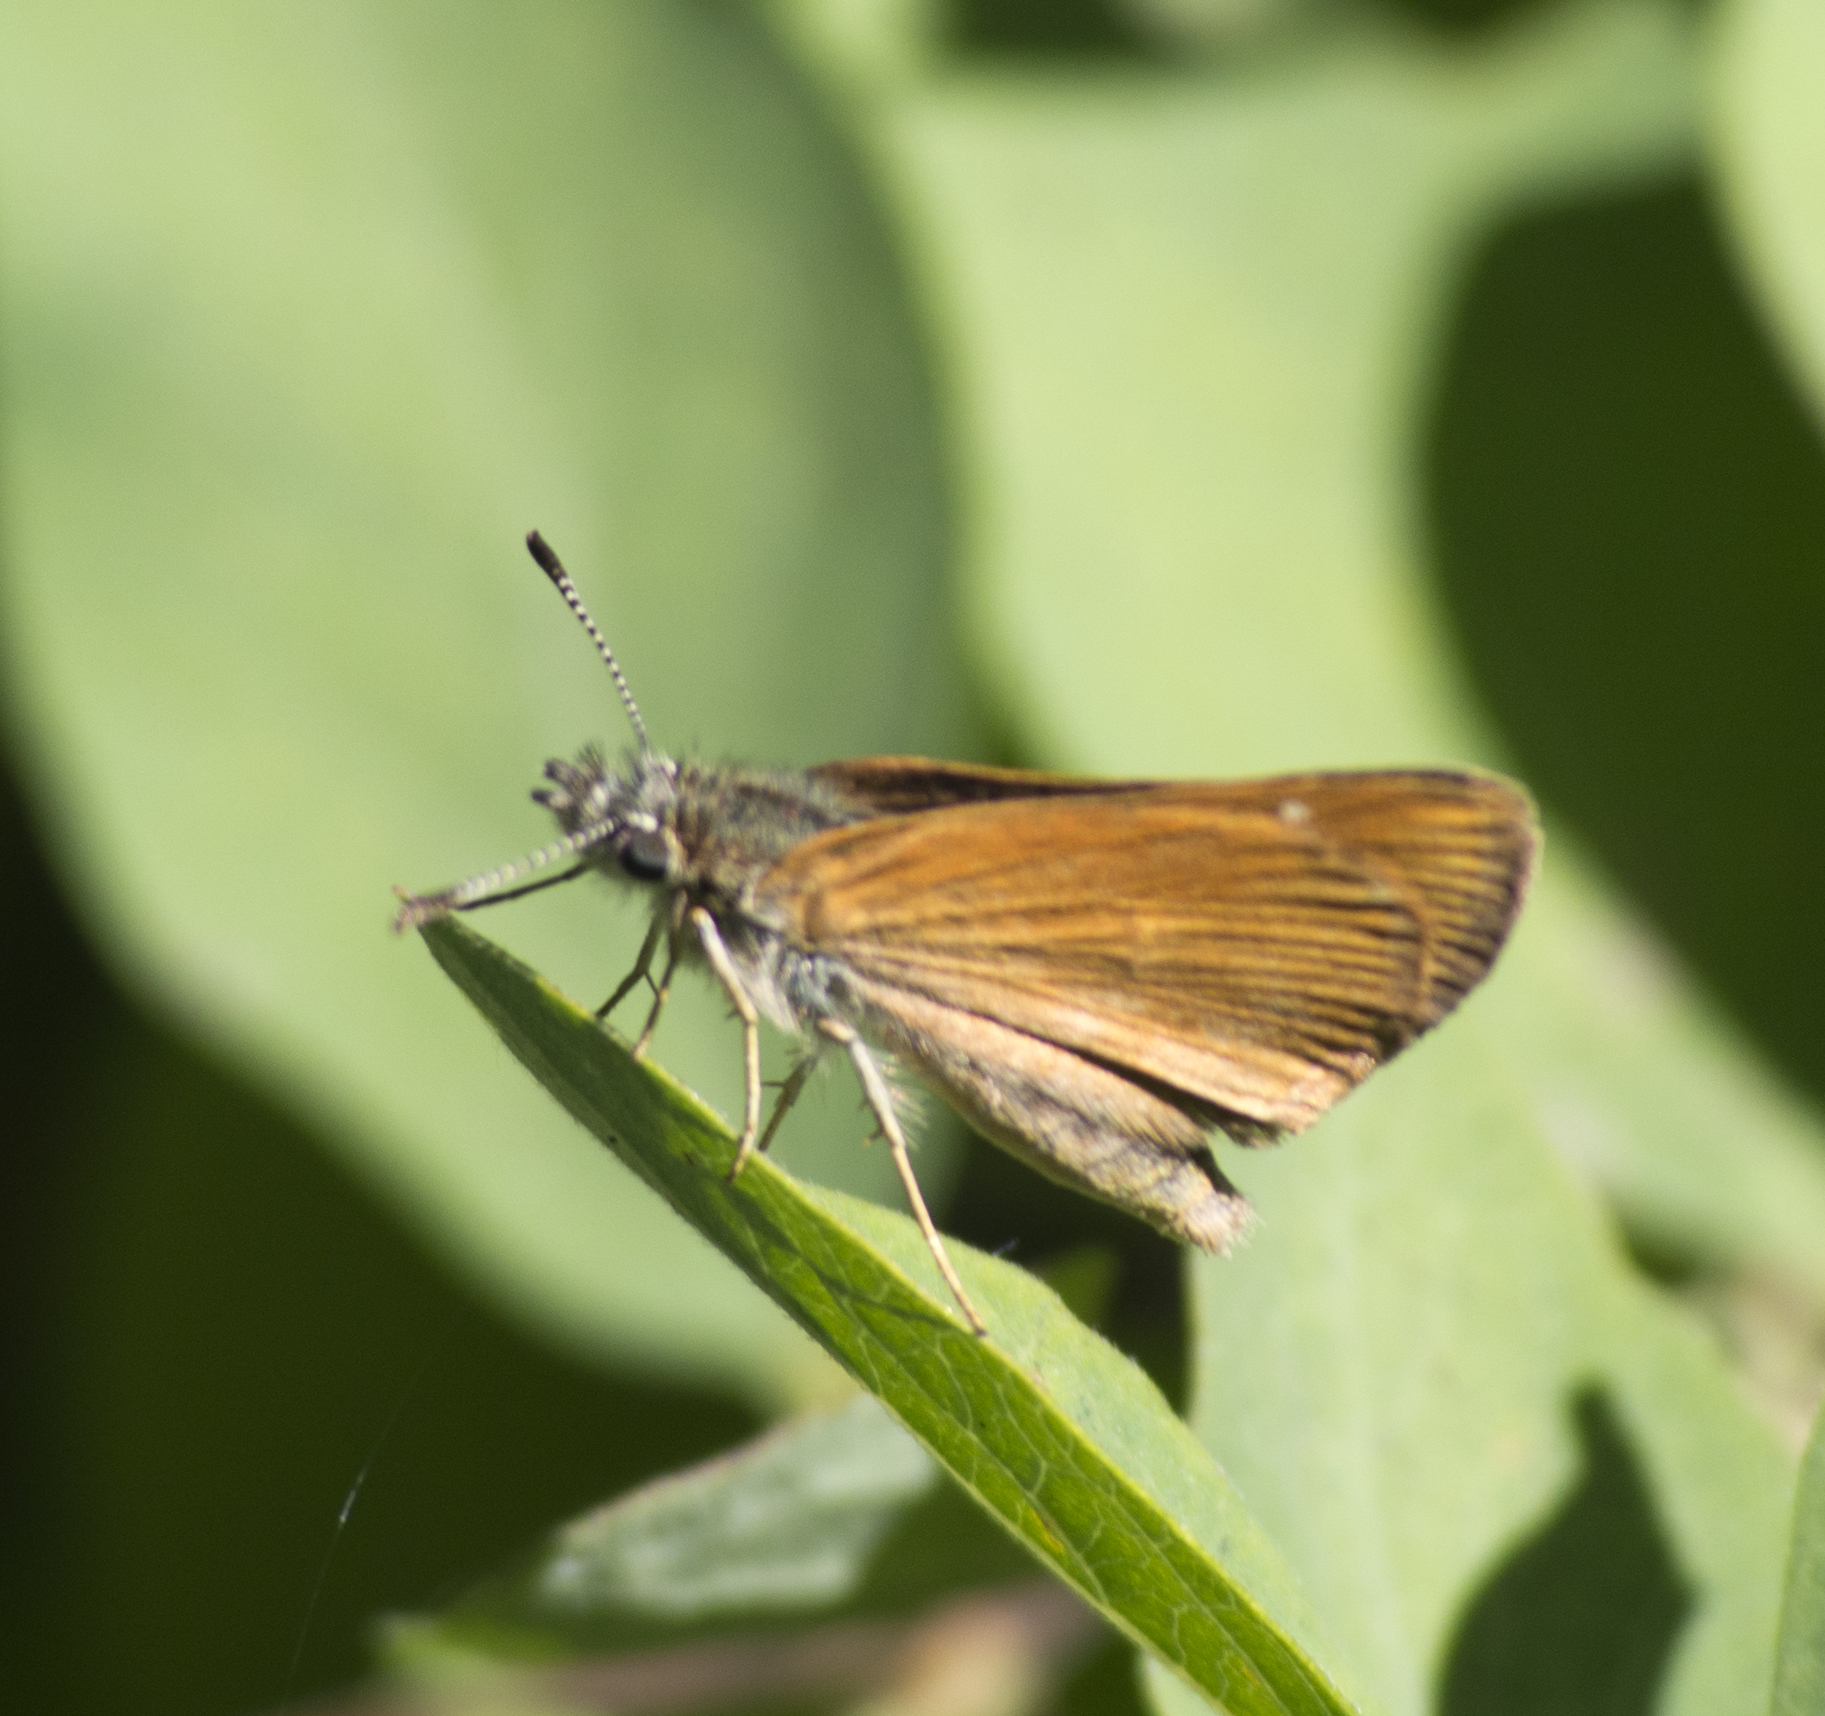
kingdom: Animalia
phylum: Arthropoda
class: Insecta
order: Lepidoptera
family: Hesperiidae
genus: Piruna
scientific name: Piruna pirus
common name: Russet skipperling
